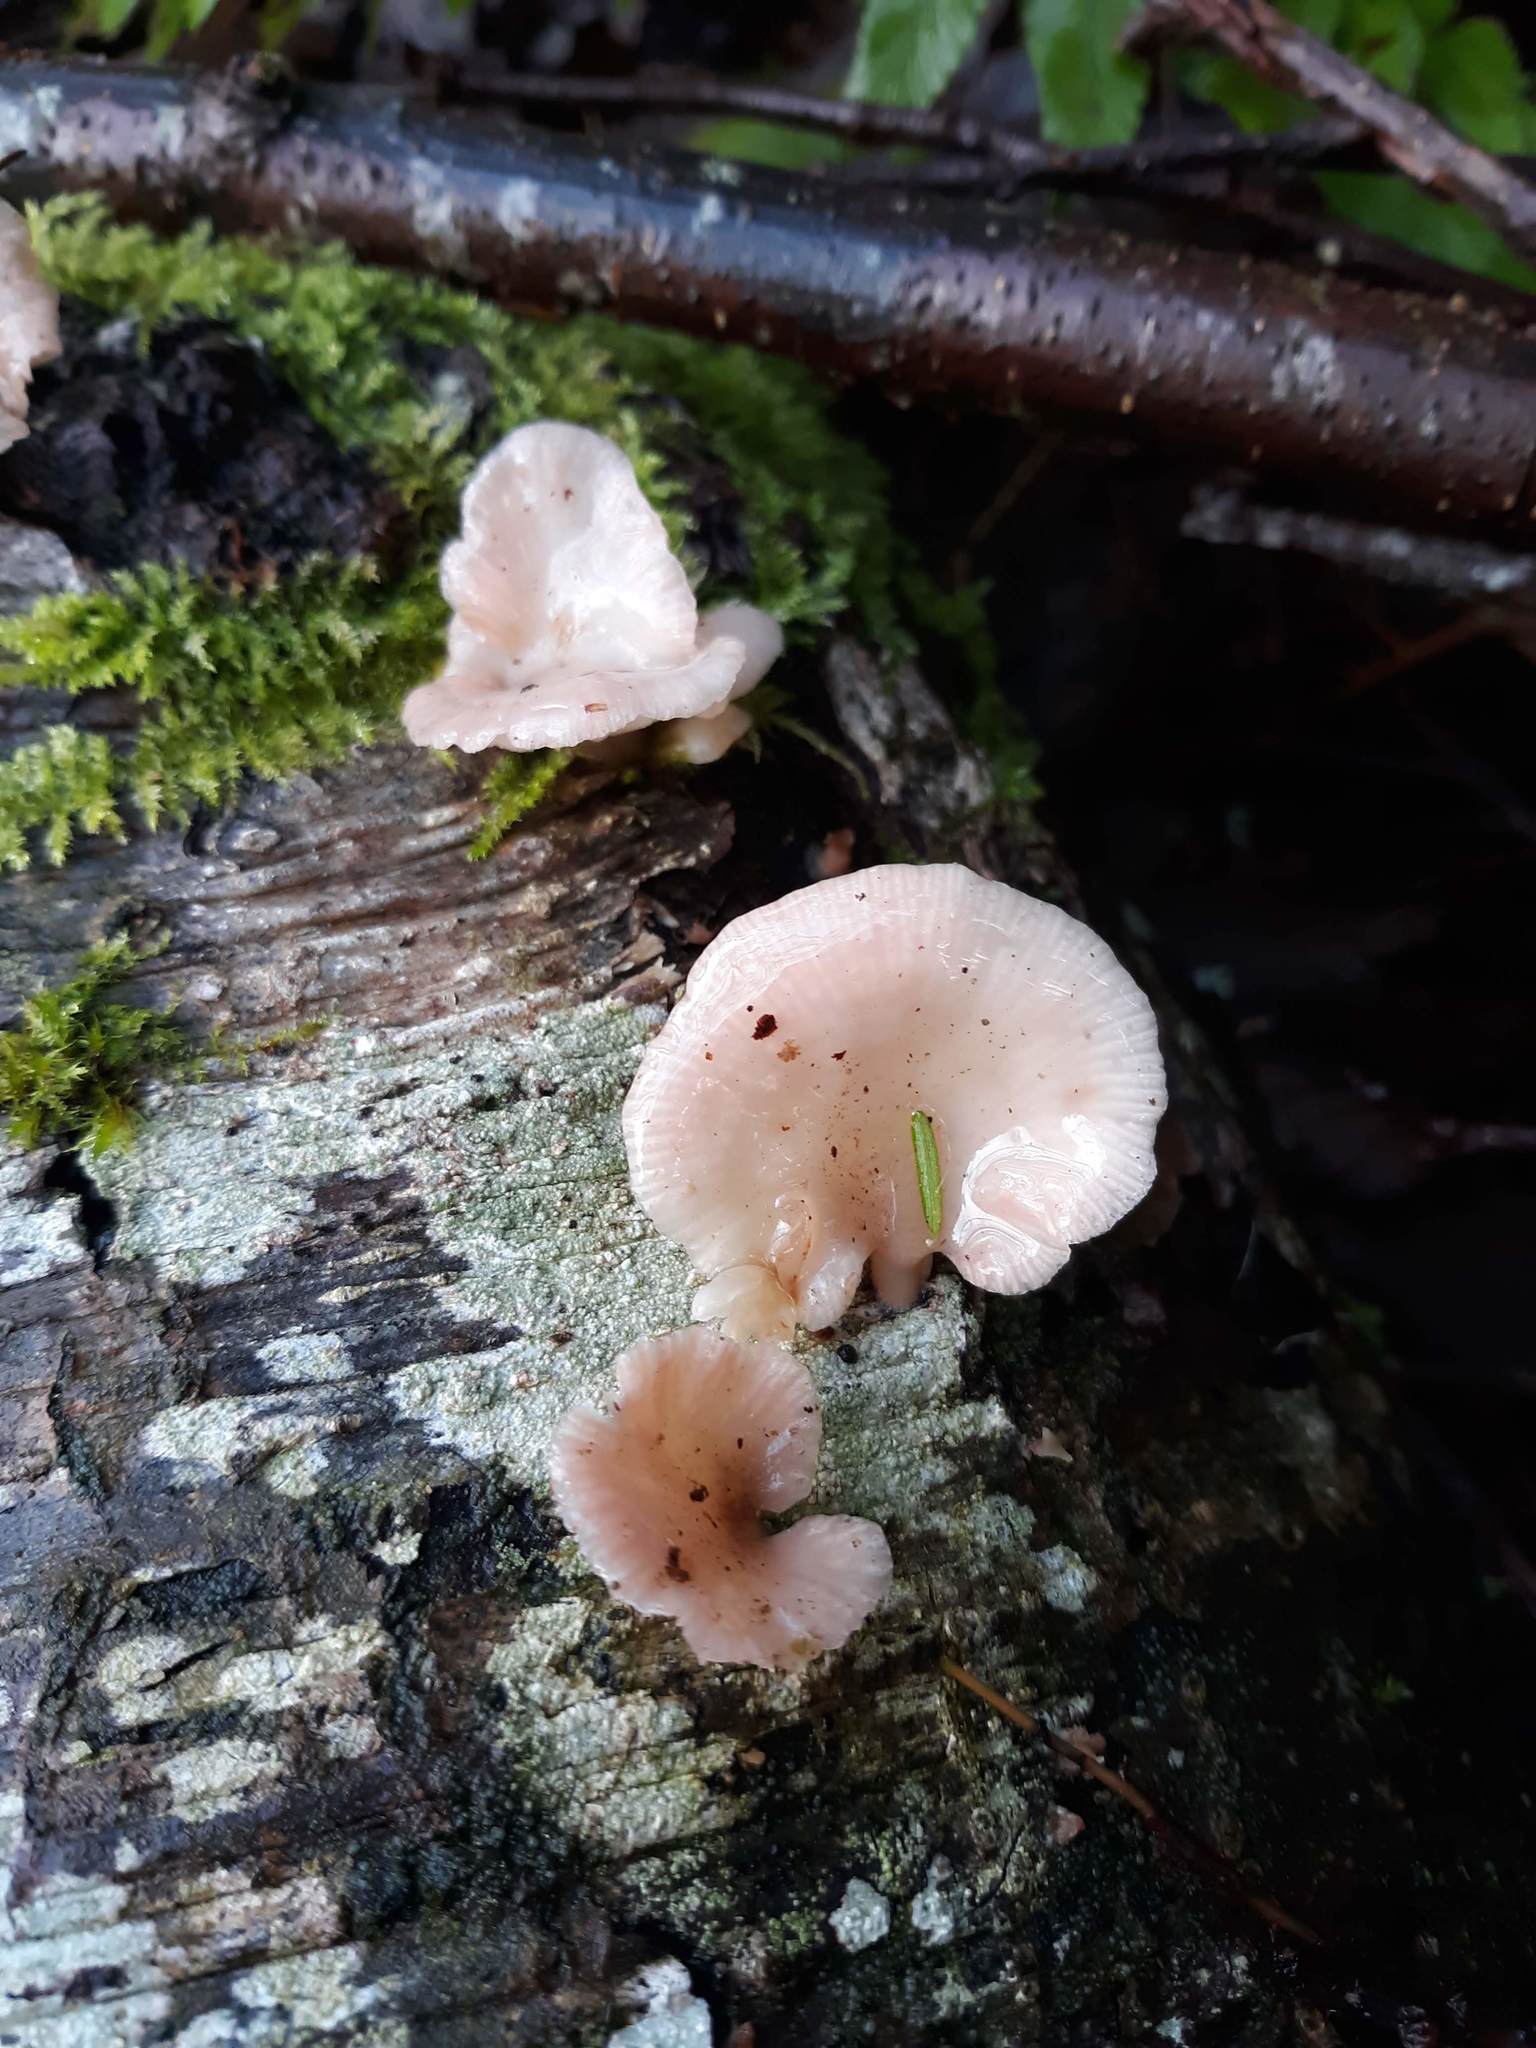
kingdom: Fungi
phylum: Basidiomycota
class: Agaricomycetes
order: Agaricales
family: Mycenaceae
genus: Panellus
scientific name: Panellus longinquus
